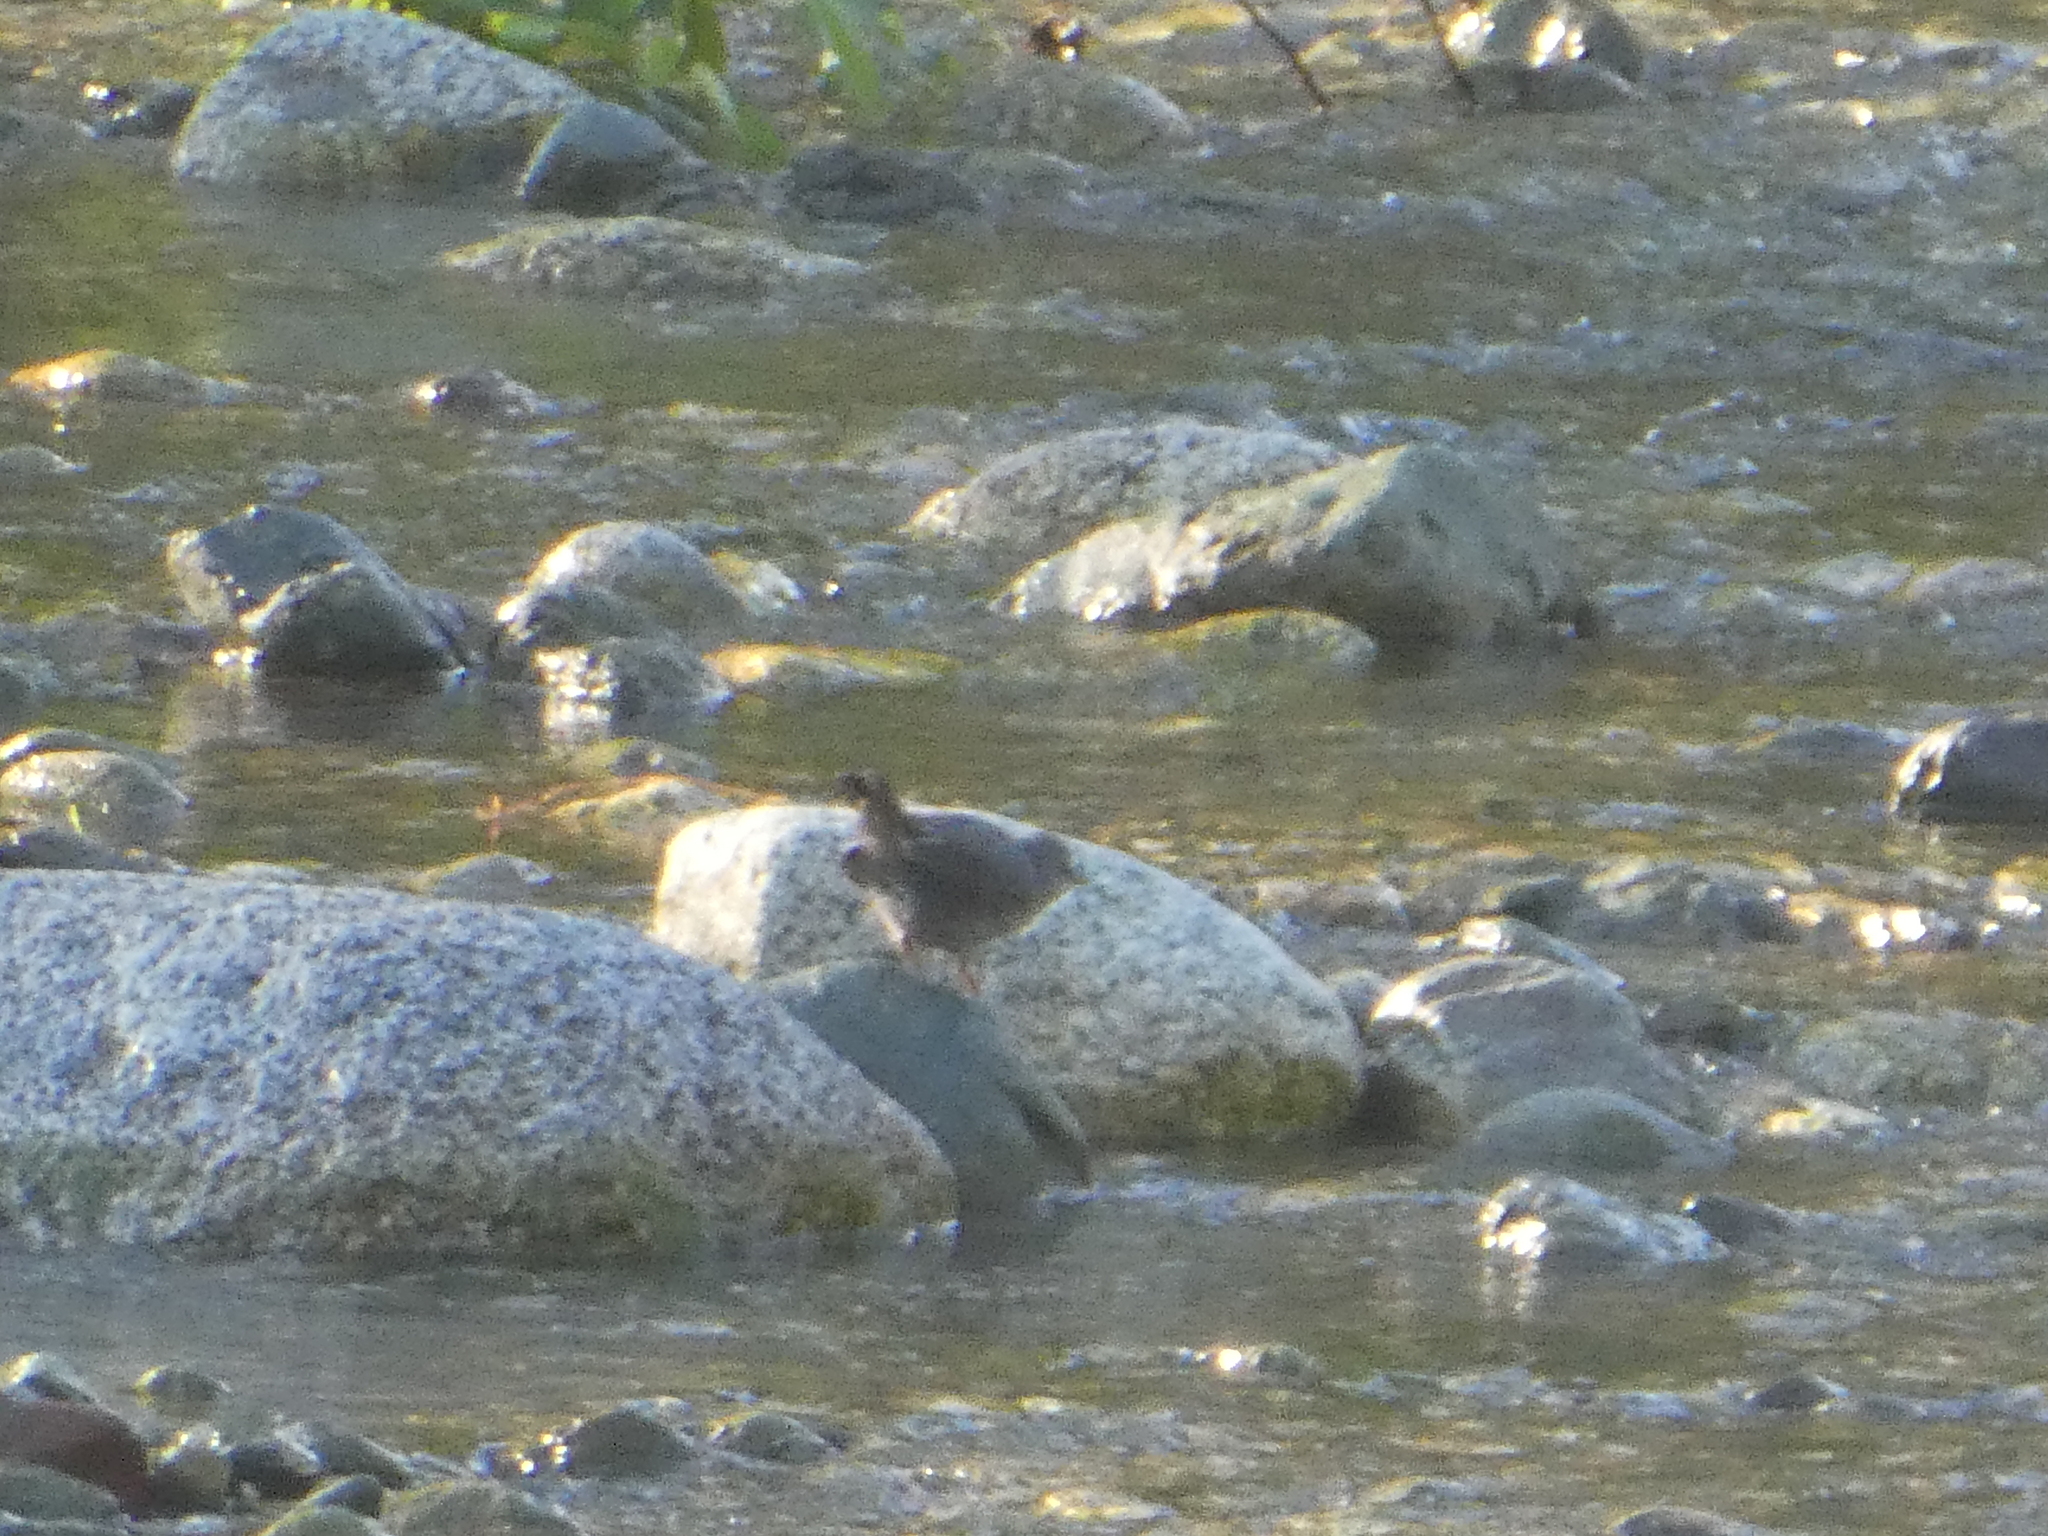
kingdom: Animalia
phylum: Chordata
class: Aves
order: Passeriformes
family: Cinclidae
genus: Cinclus
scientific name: Cinclus mexicanus
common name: American dipper
